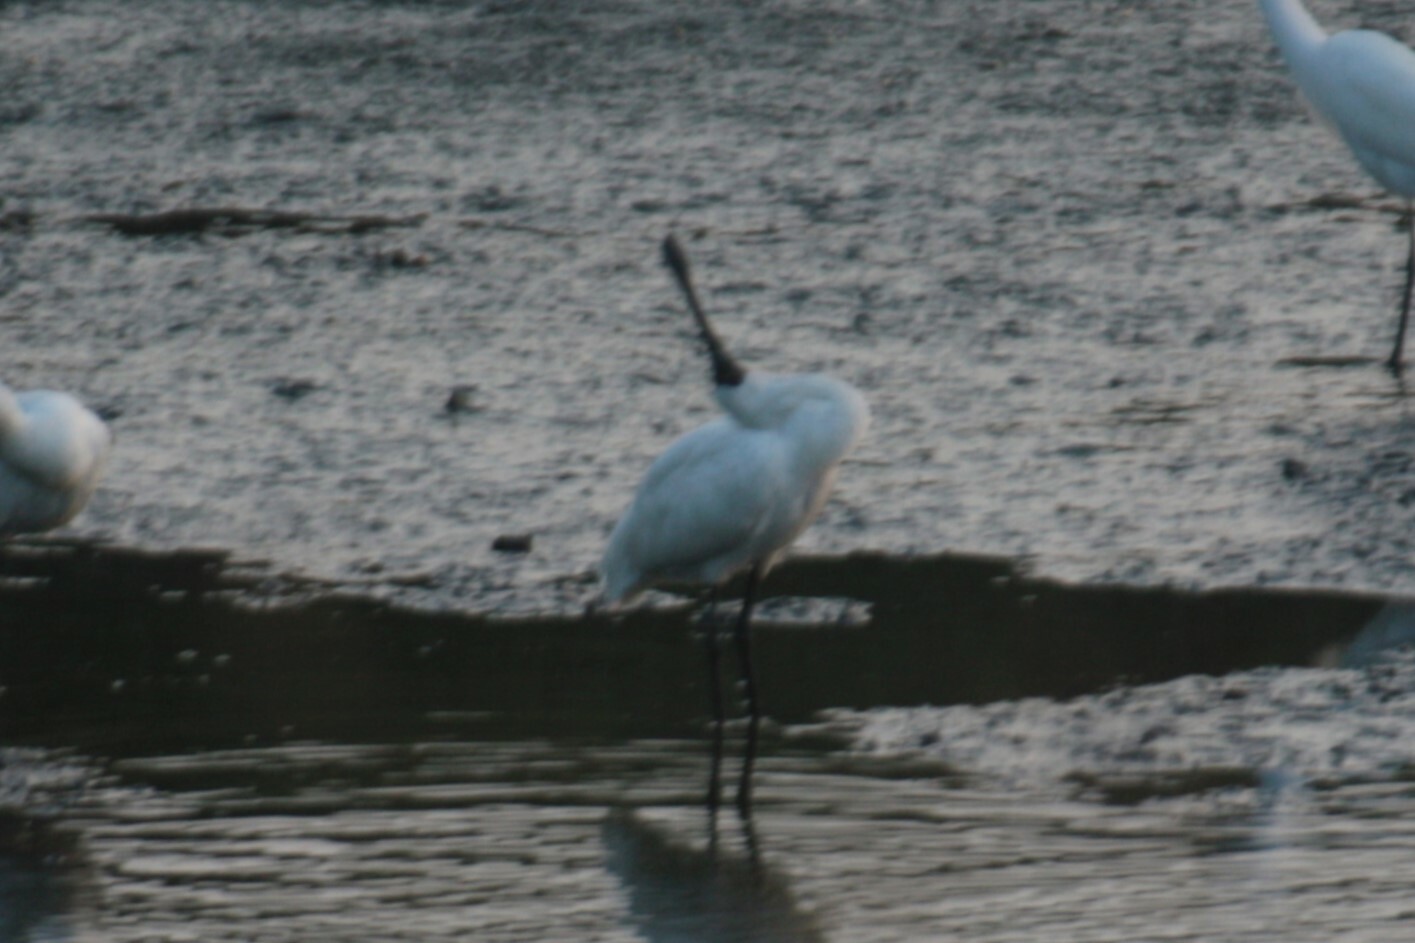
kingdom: Animalia
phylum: Chordata
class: Aves
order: Pelecaniformes
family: Threskiornithidae
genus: Platalea
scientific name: Platalea minor
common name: Black-faced spoonbill
